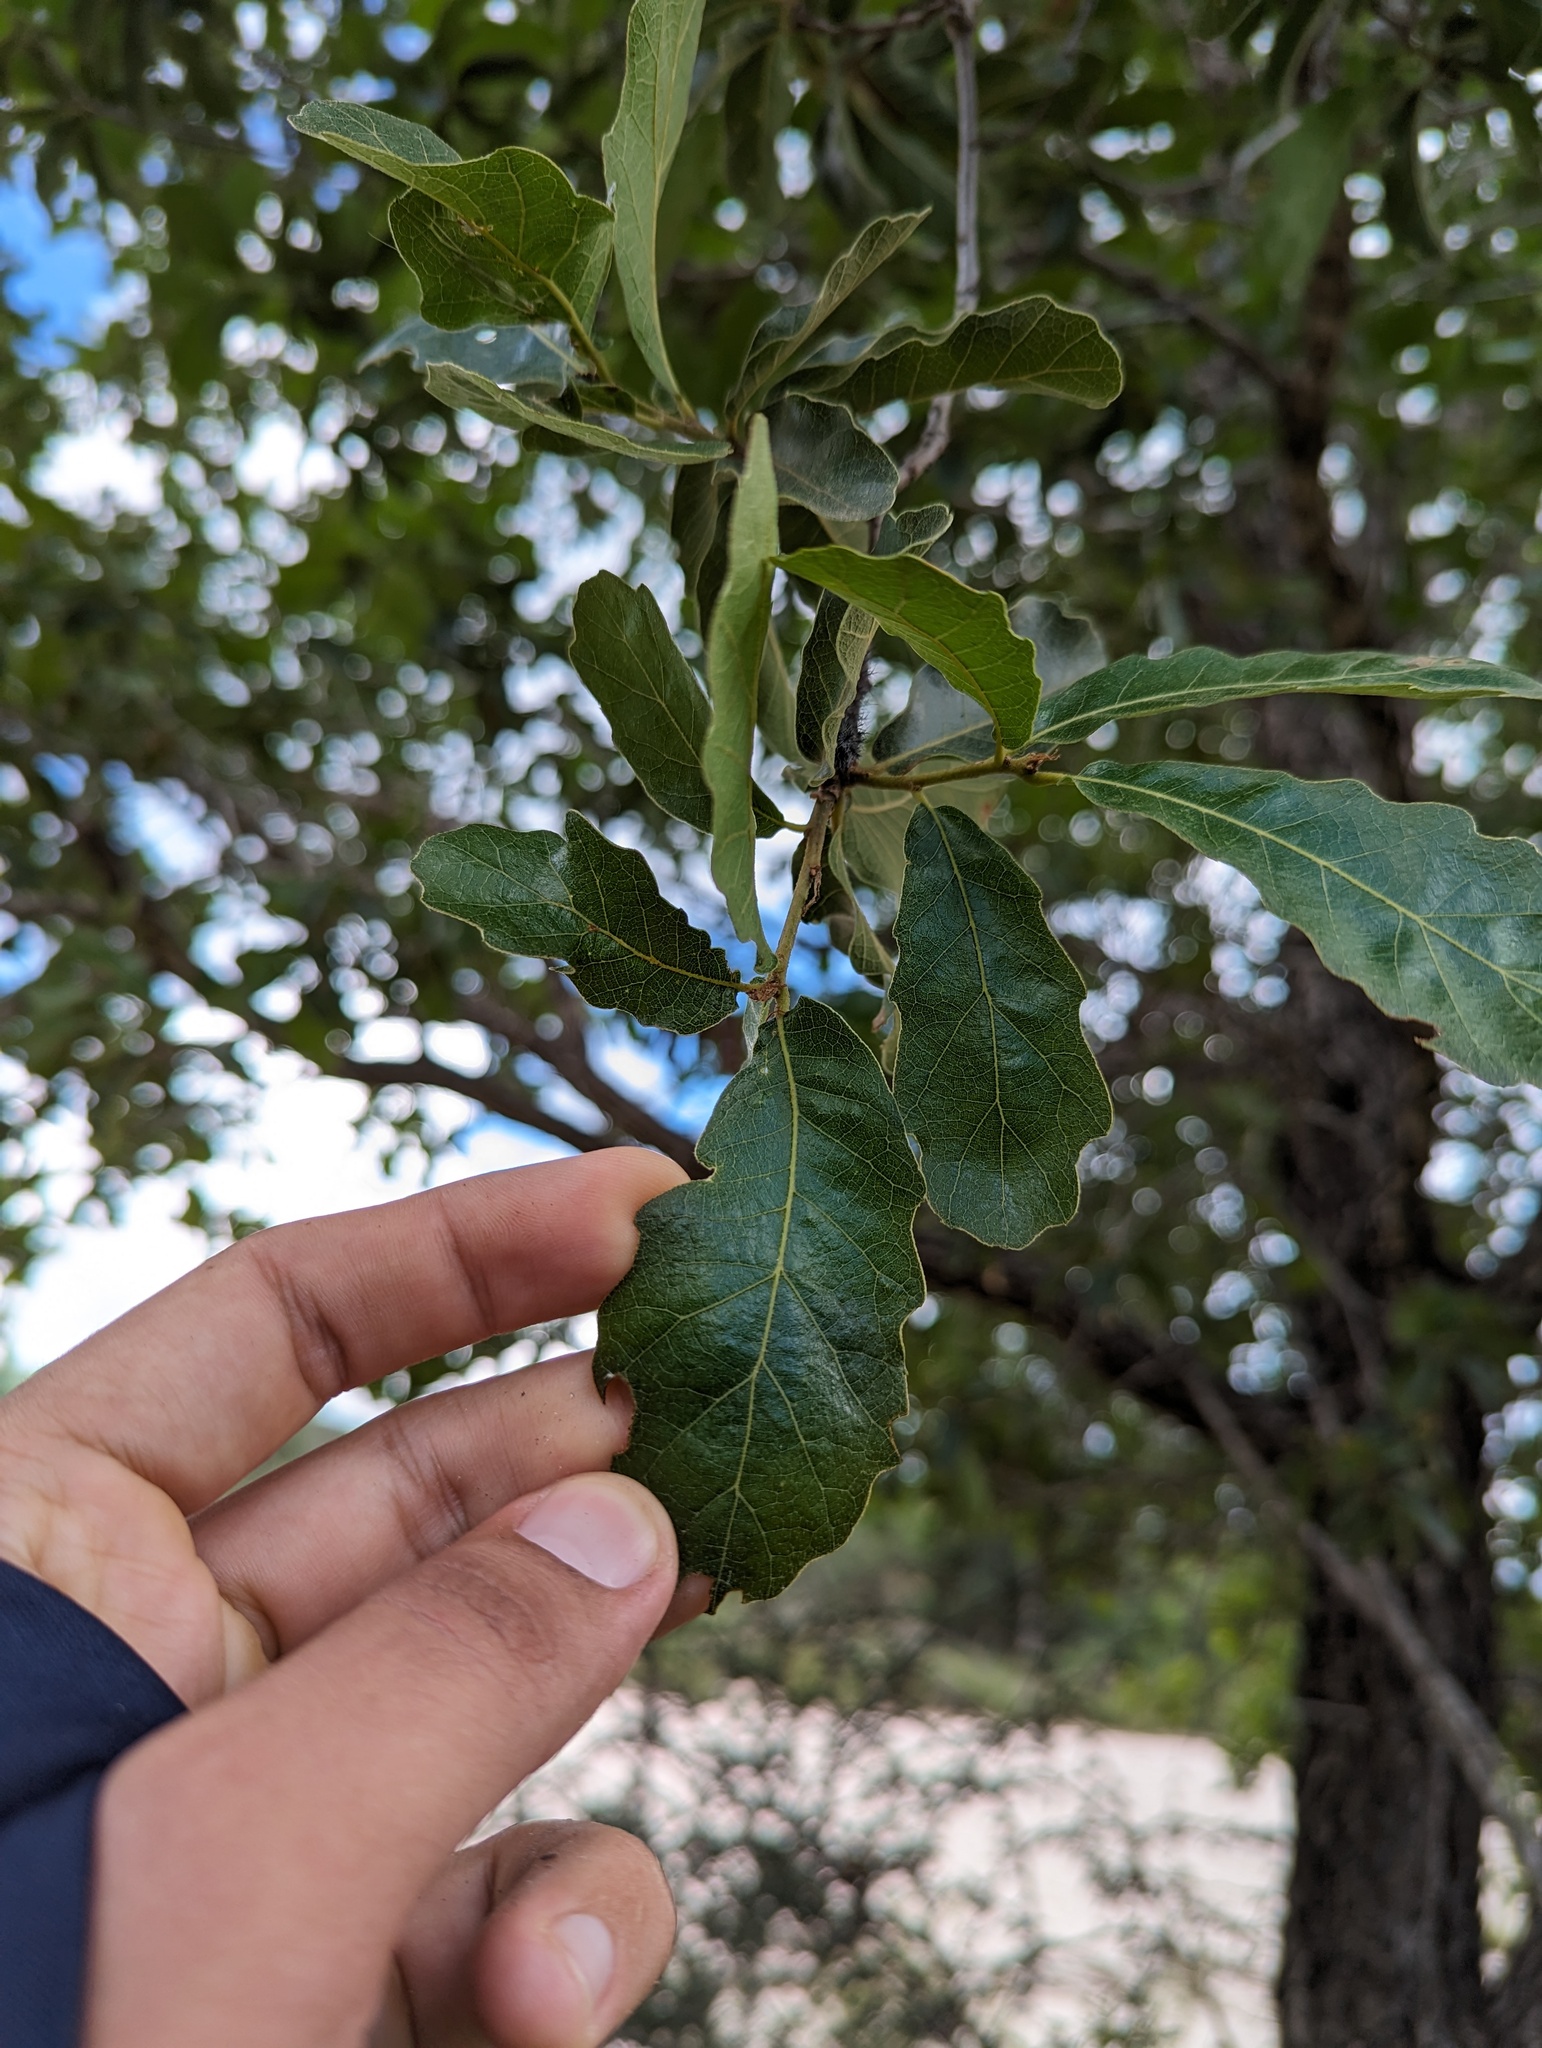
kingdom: Plantae
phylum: Tracheophyta
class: Magnoliopsida
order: Fagales
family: Fagaceae
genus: Quercus
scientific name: Quercus tuberculata
